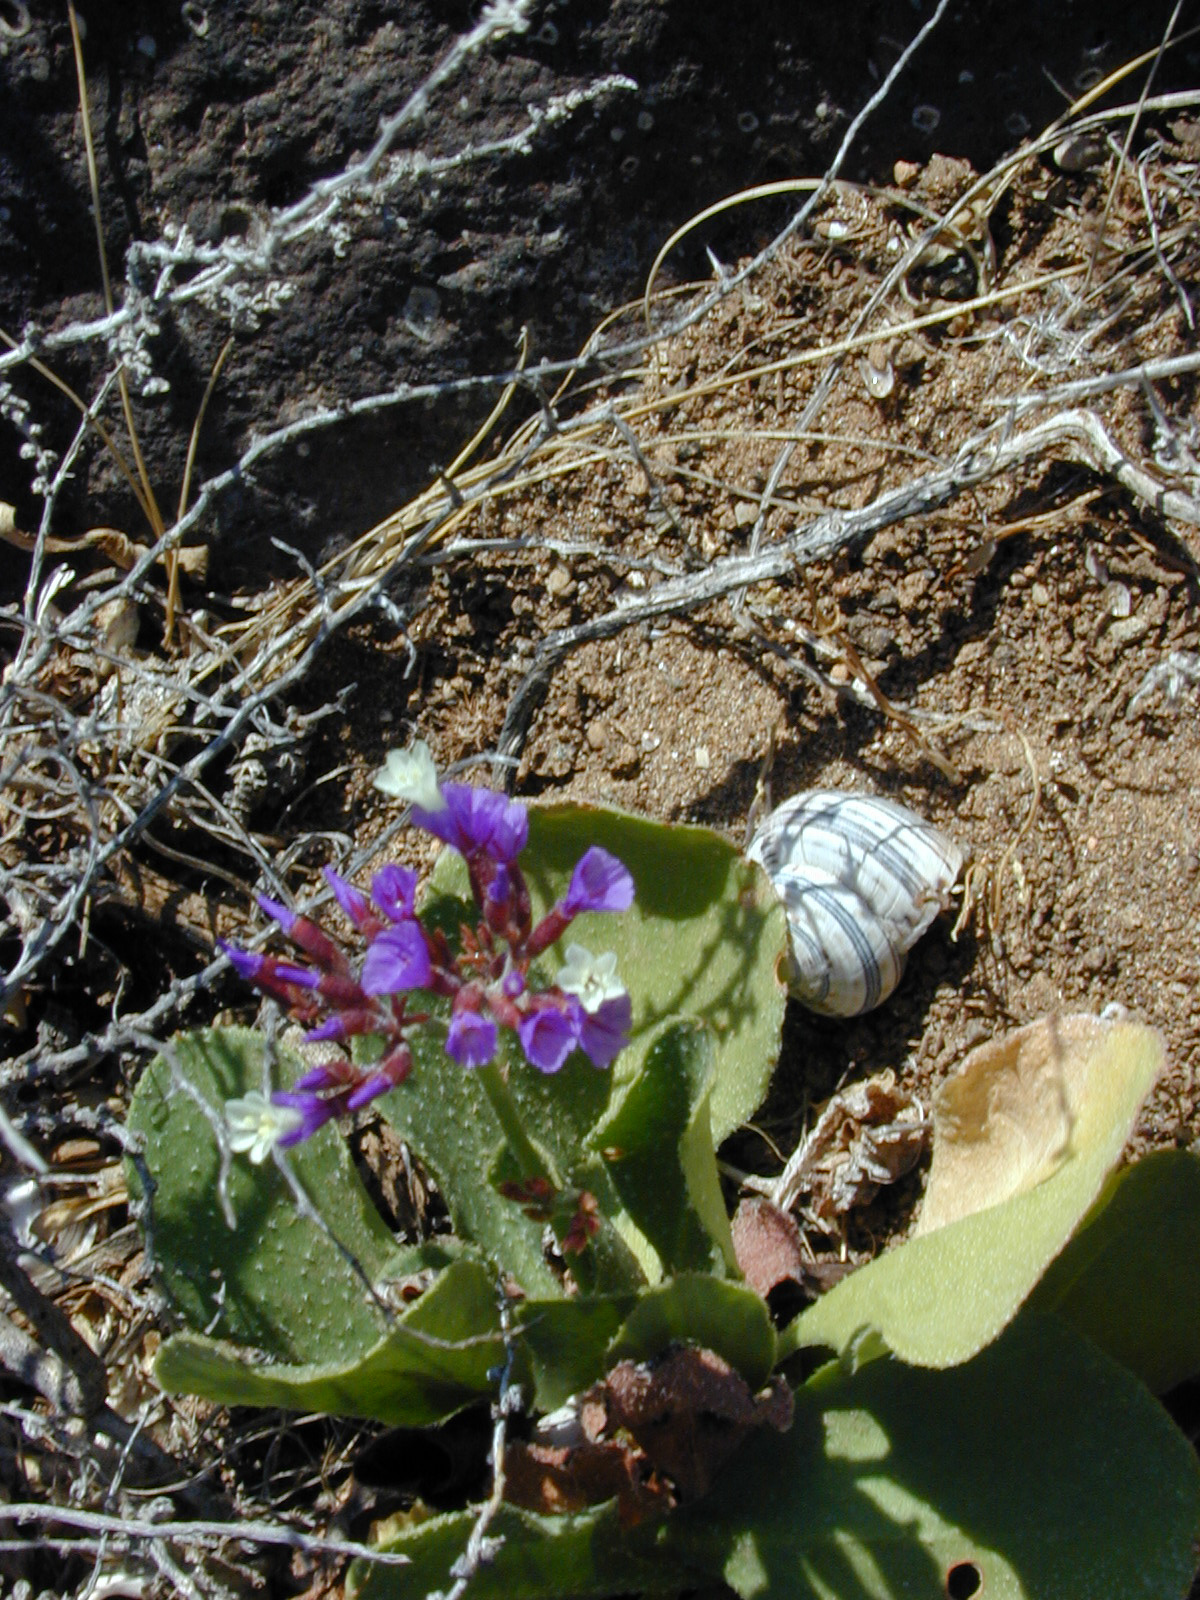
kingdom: Plantae
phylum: Tracheophyta
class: Magnoliopsida
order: Caryophyllales
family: Plumbaginaceae
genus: Limonium
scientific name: Limonium puberulum
